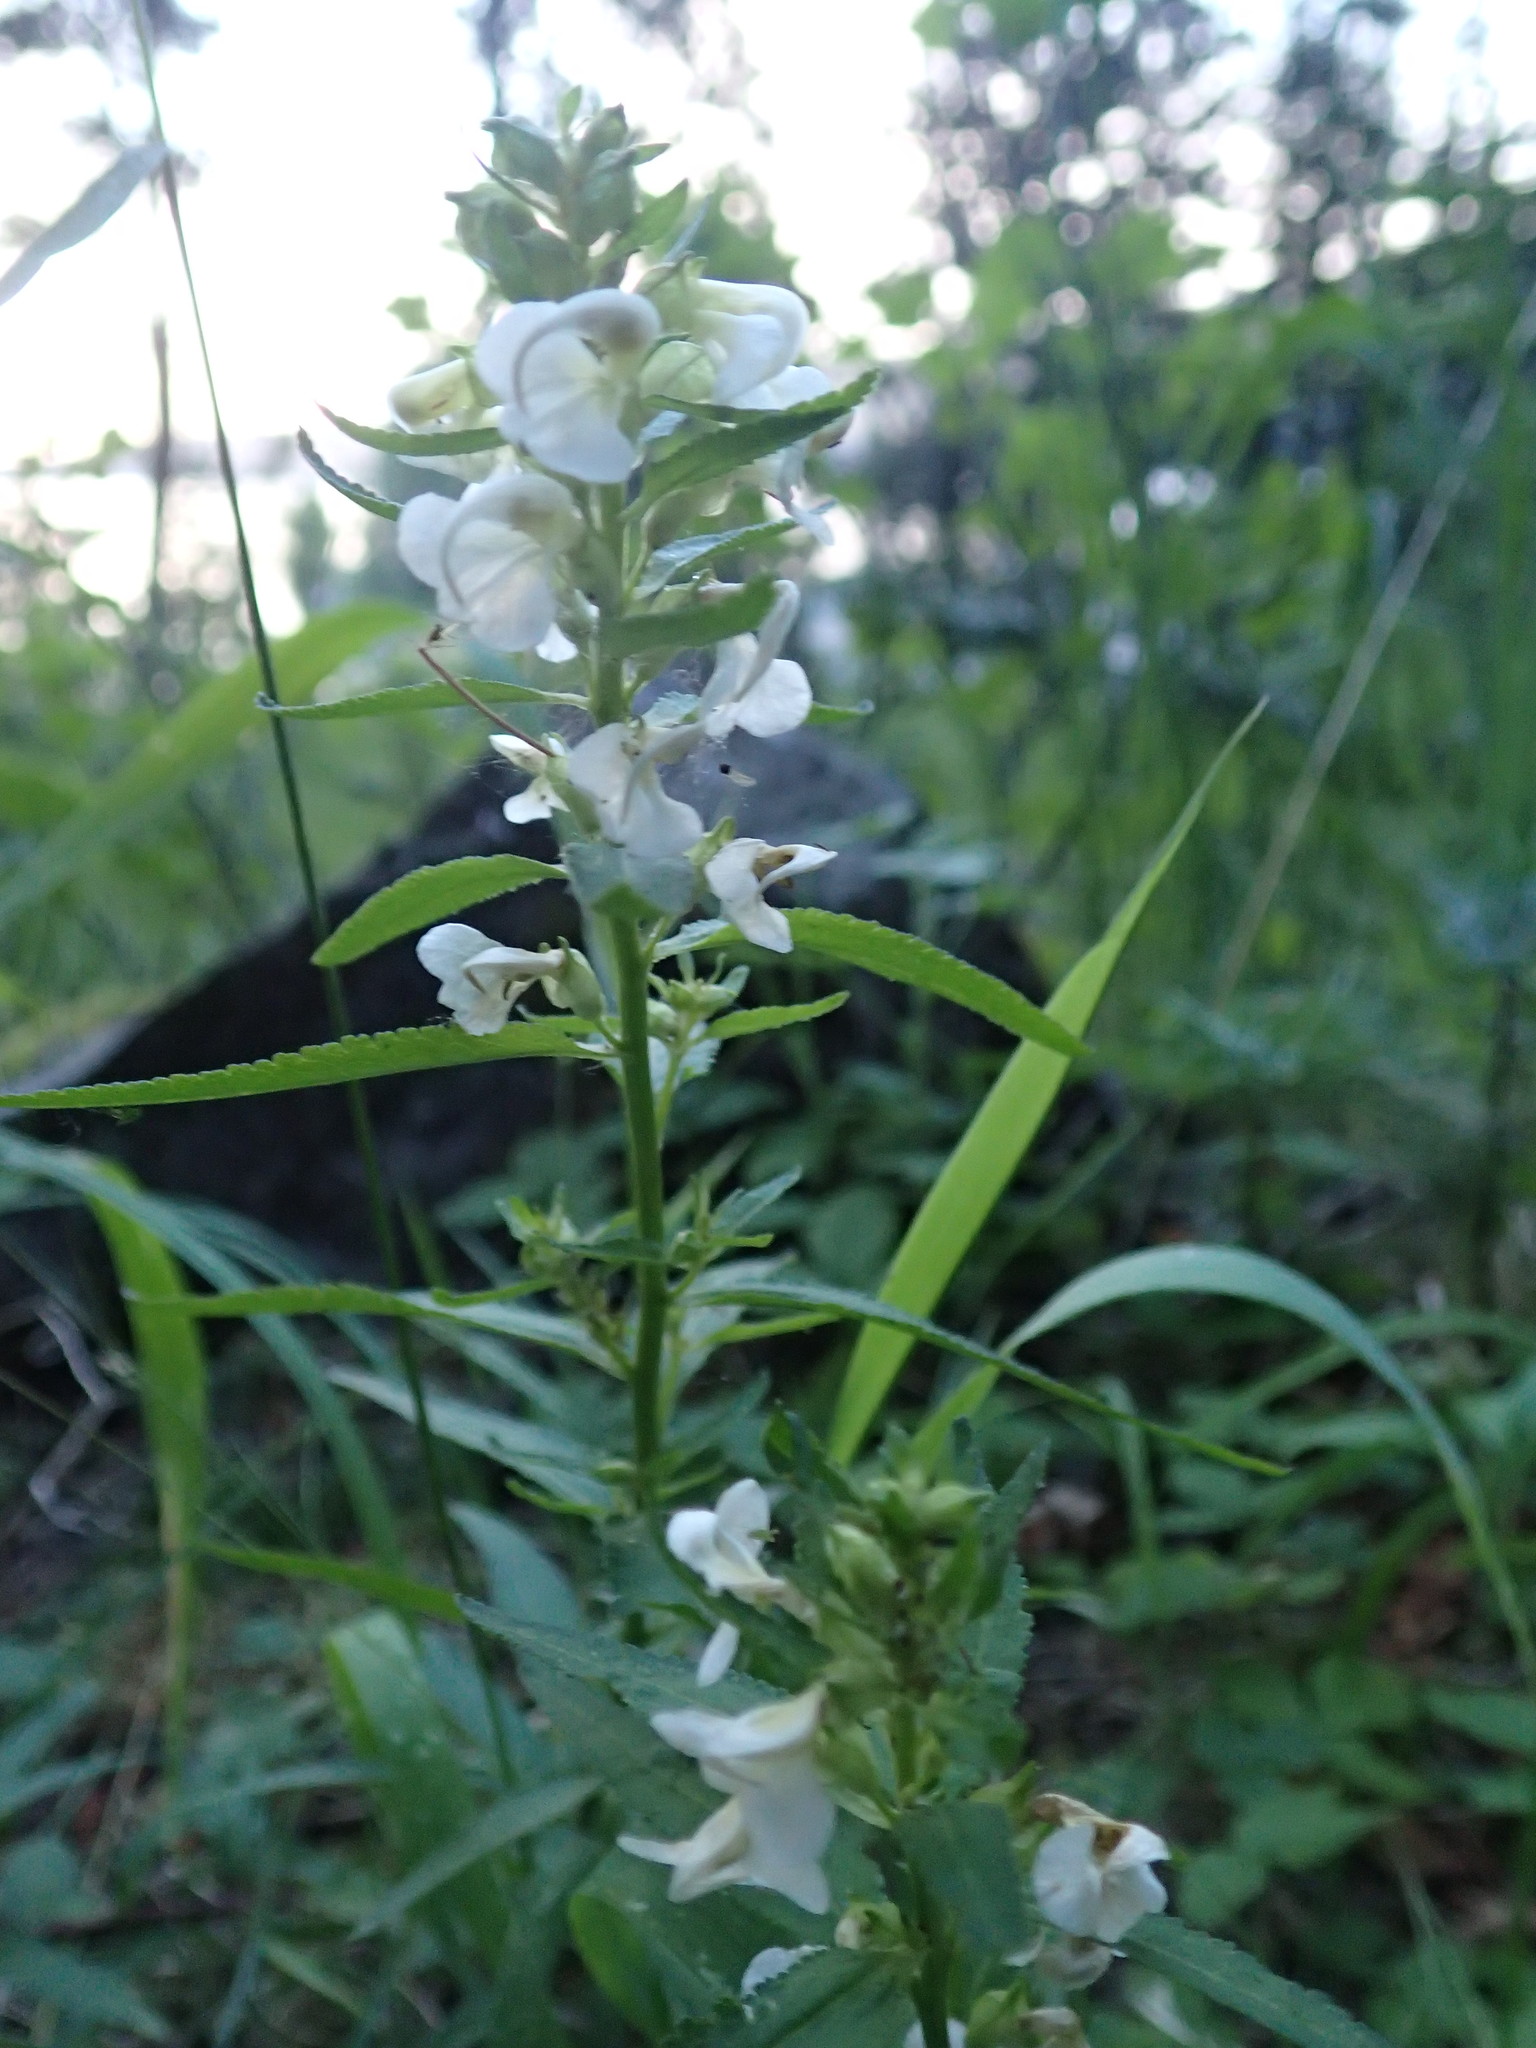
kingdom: Plantae
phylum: Tracheophyta
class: Magnoliopsida
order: Lamiales
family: Orobanchaceae
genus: Pedicularis
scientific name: Pedicularis racemosa
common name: Leafy lousewort
